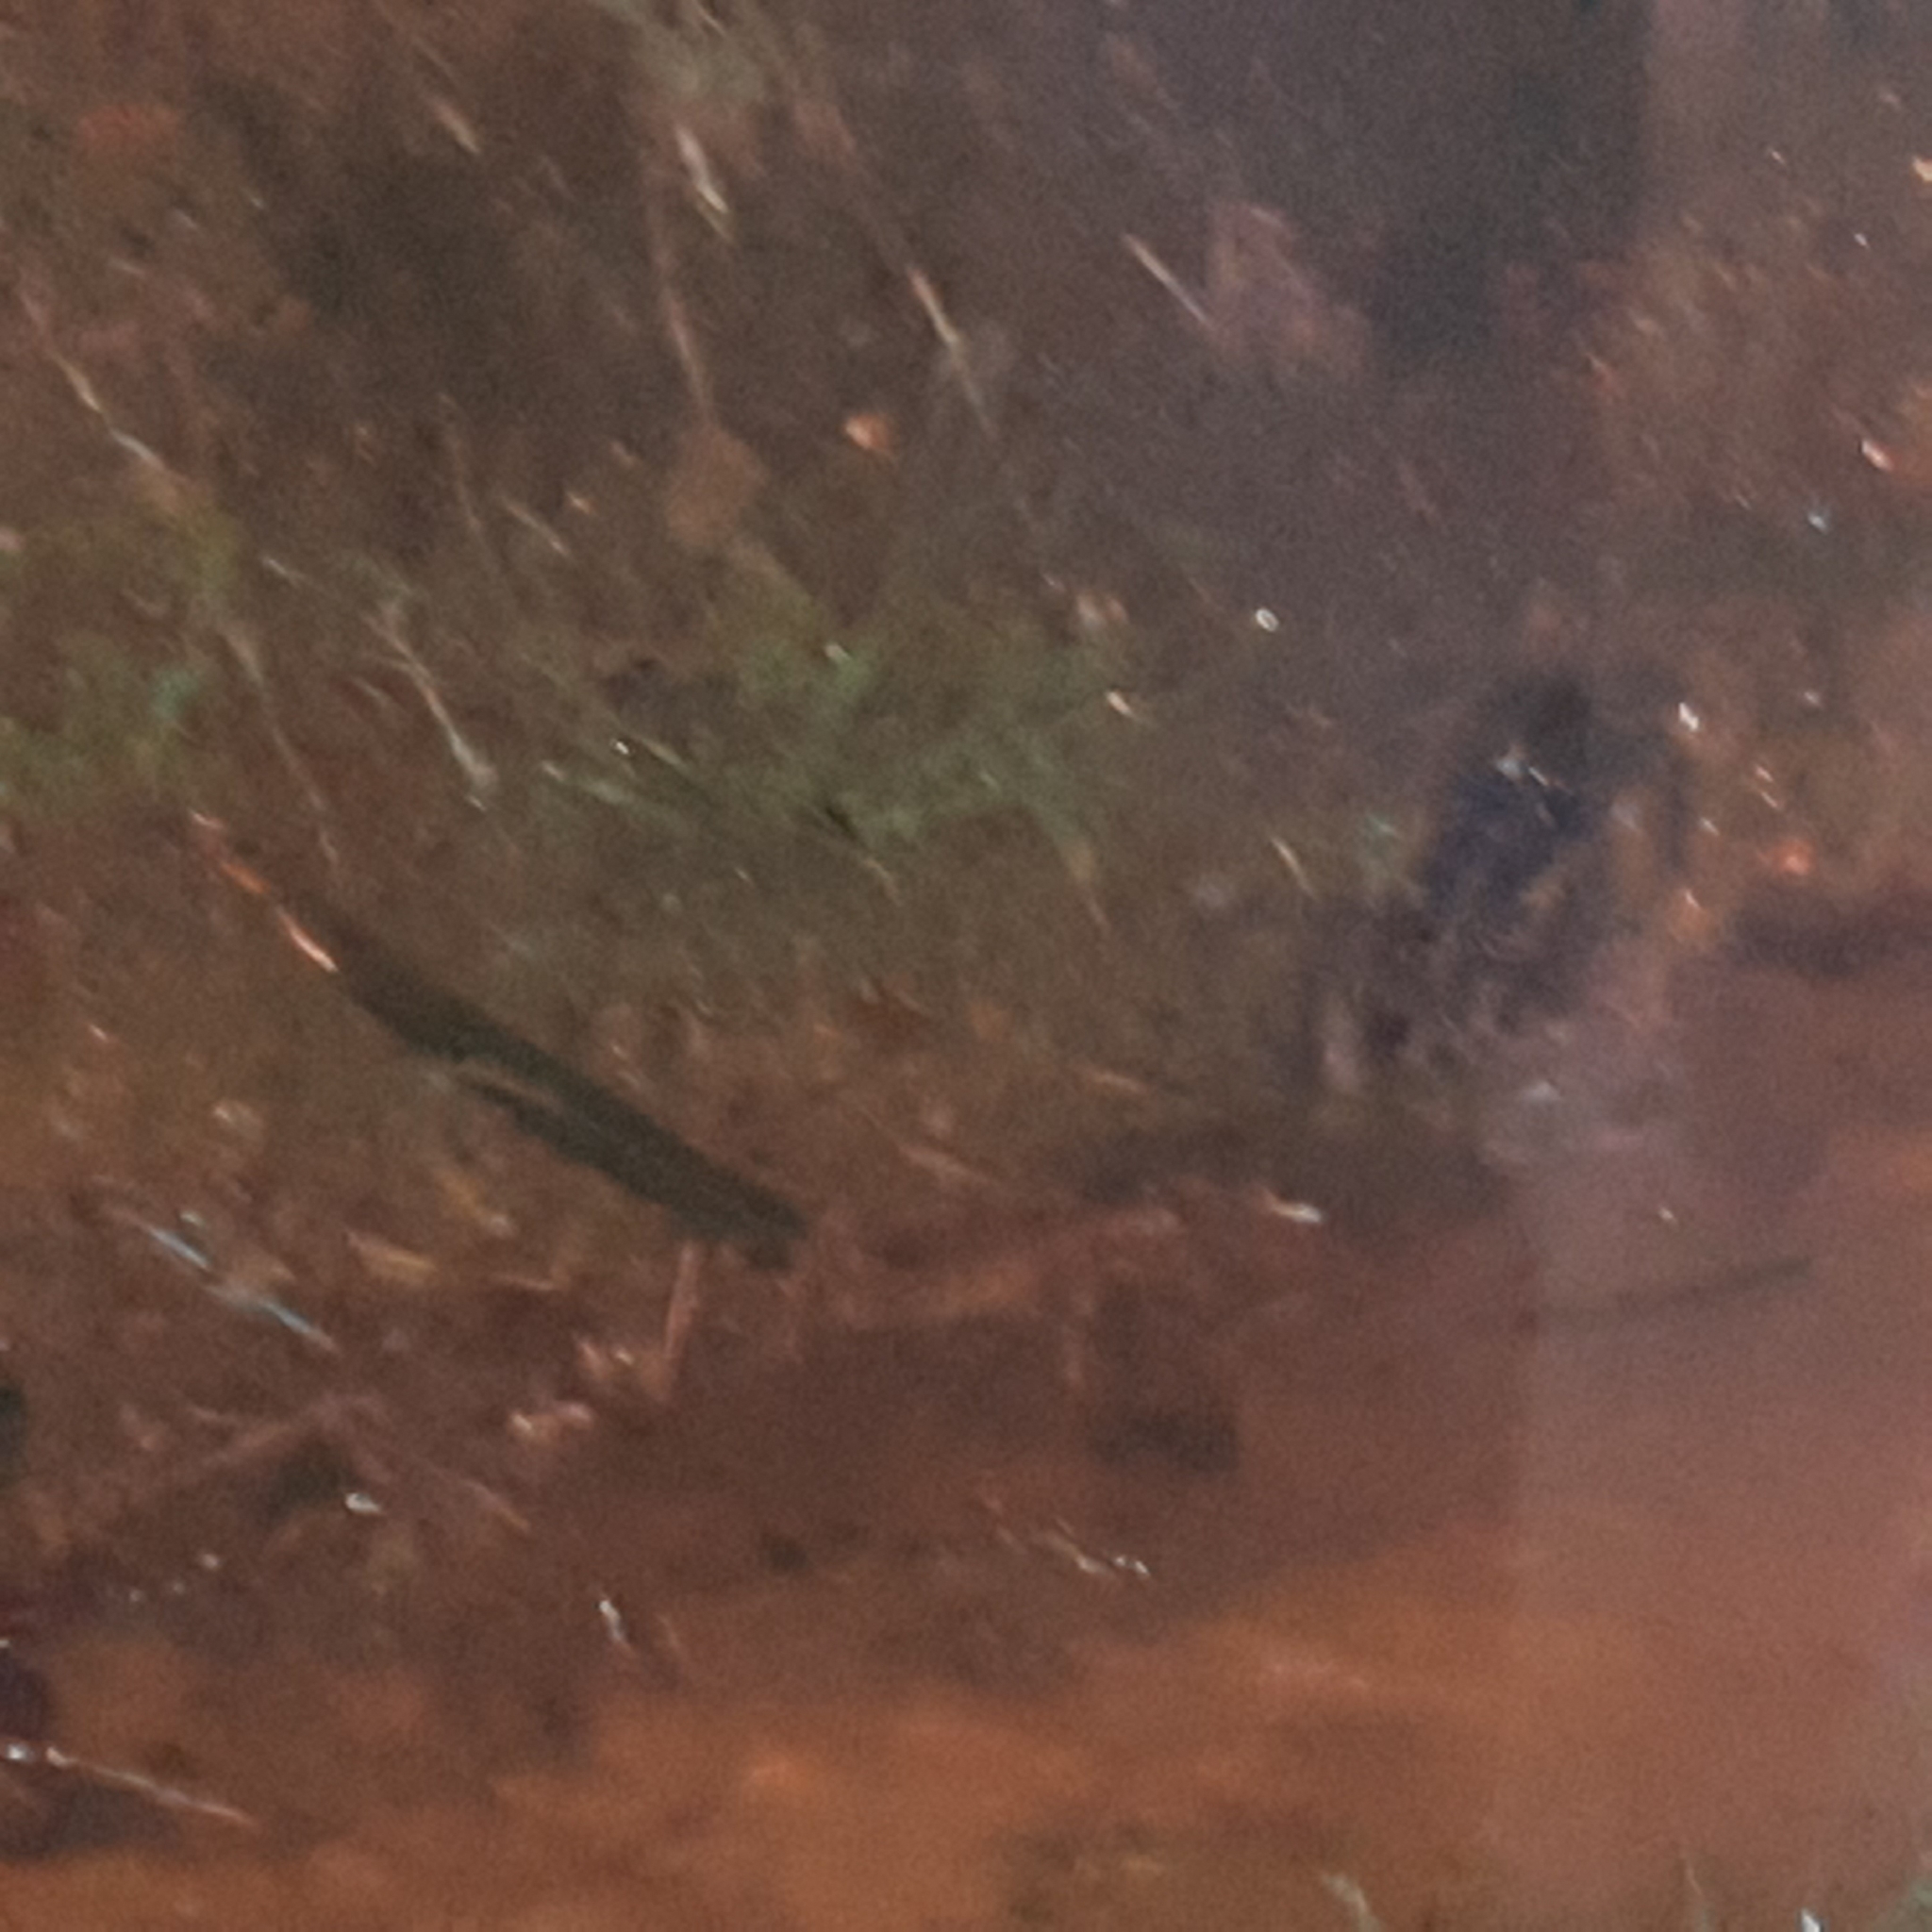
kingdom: Animalia
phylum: Chordata
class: Amphibia
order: Anura
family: Bufonidae
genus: Rhinella
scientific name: Rhinella horribilis
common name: Mesoamerican cane toad
